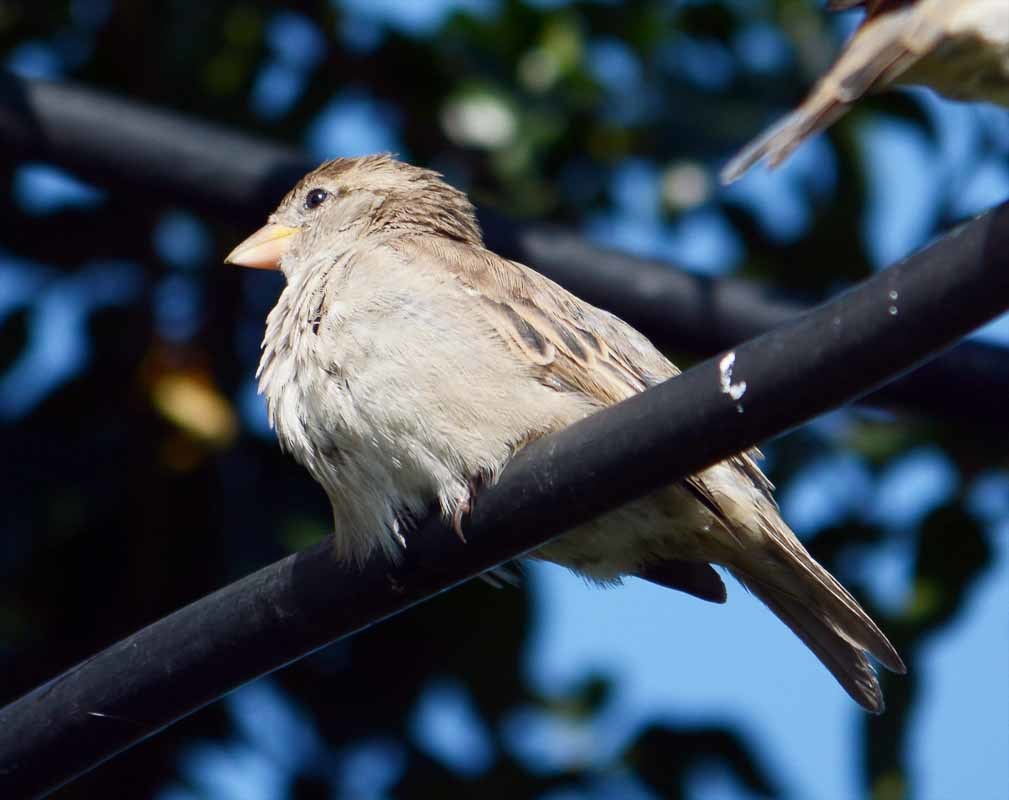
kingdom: Animalia
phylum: Chordata
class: Aves
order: Passeriformes
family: Passeridae
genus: Passer
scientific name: Passer domesticus
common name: House sparrow
